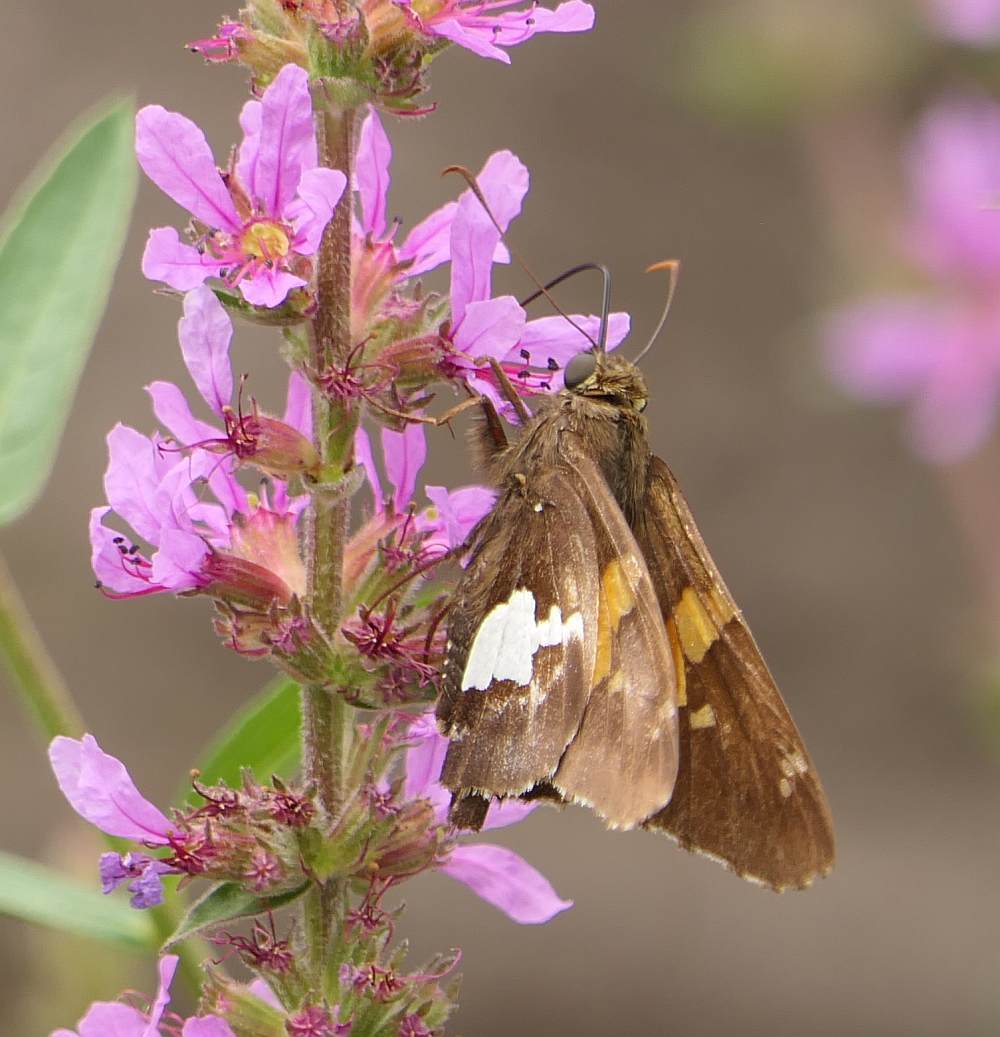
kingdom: Animalia
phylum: Arthropoda
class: Insecta
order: Lepidoptera
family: Hesperiidae
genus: Epargyreus
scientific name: Epargyreus clarus
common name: Silver-spotted skipper
